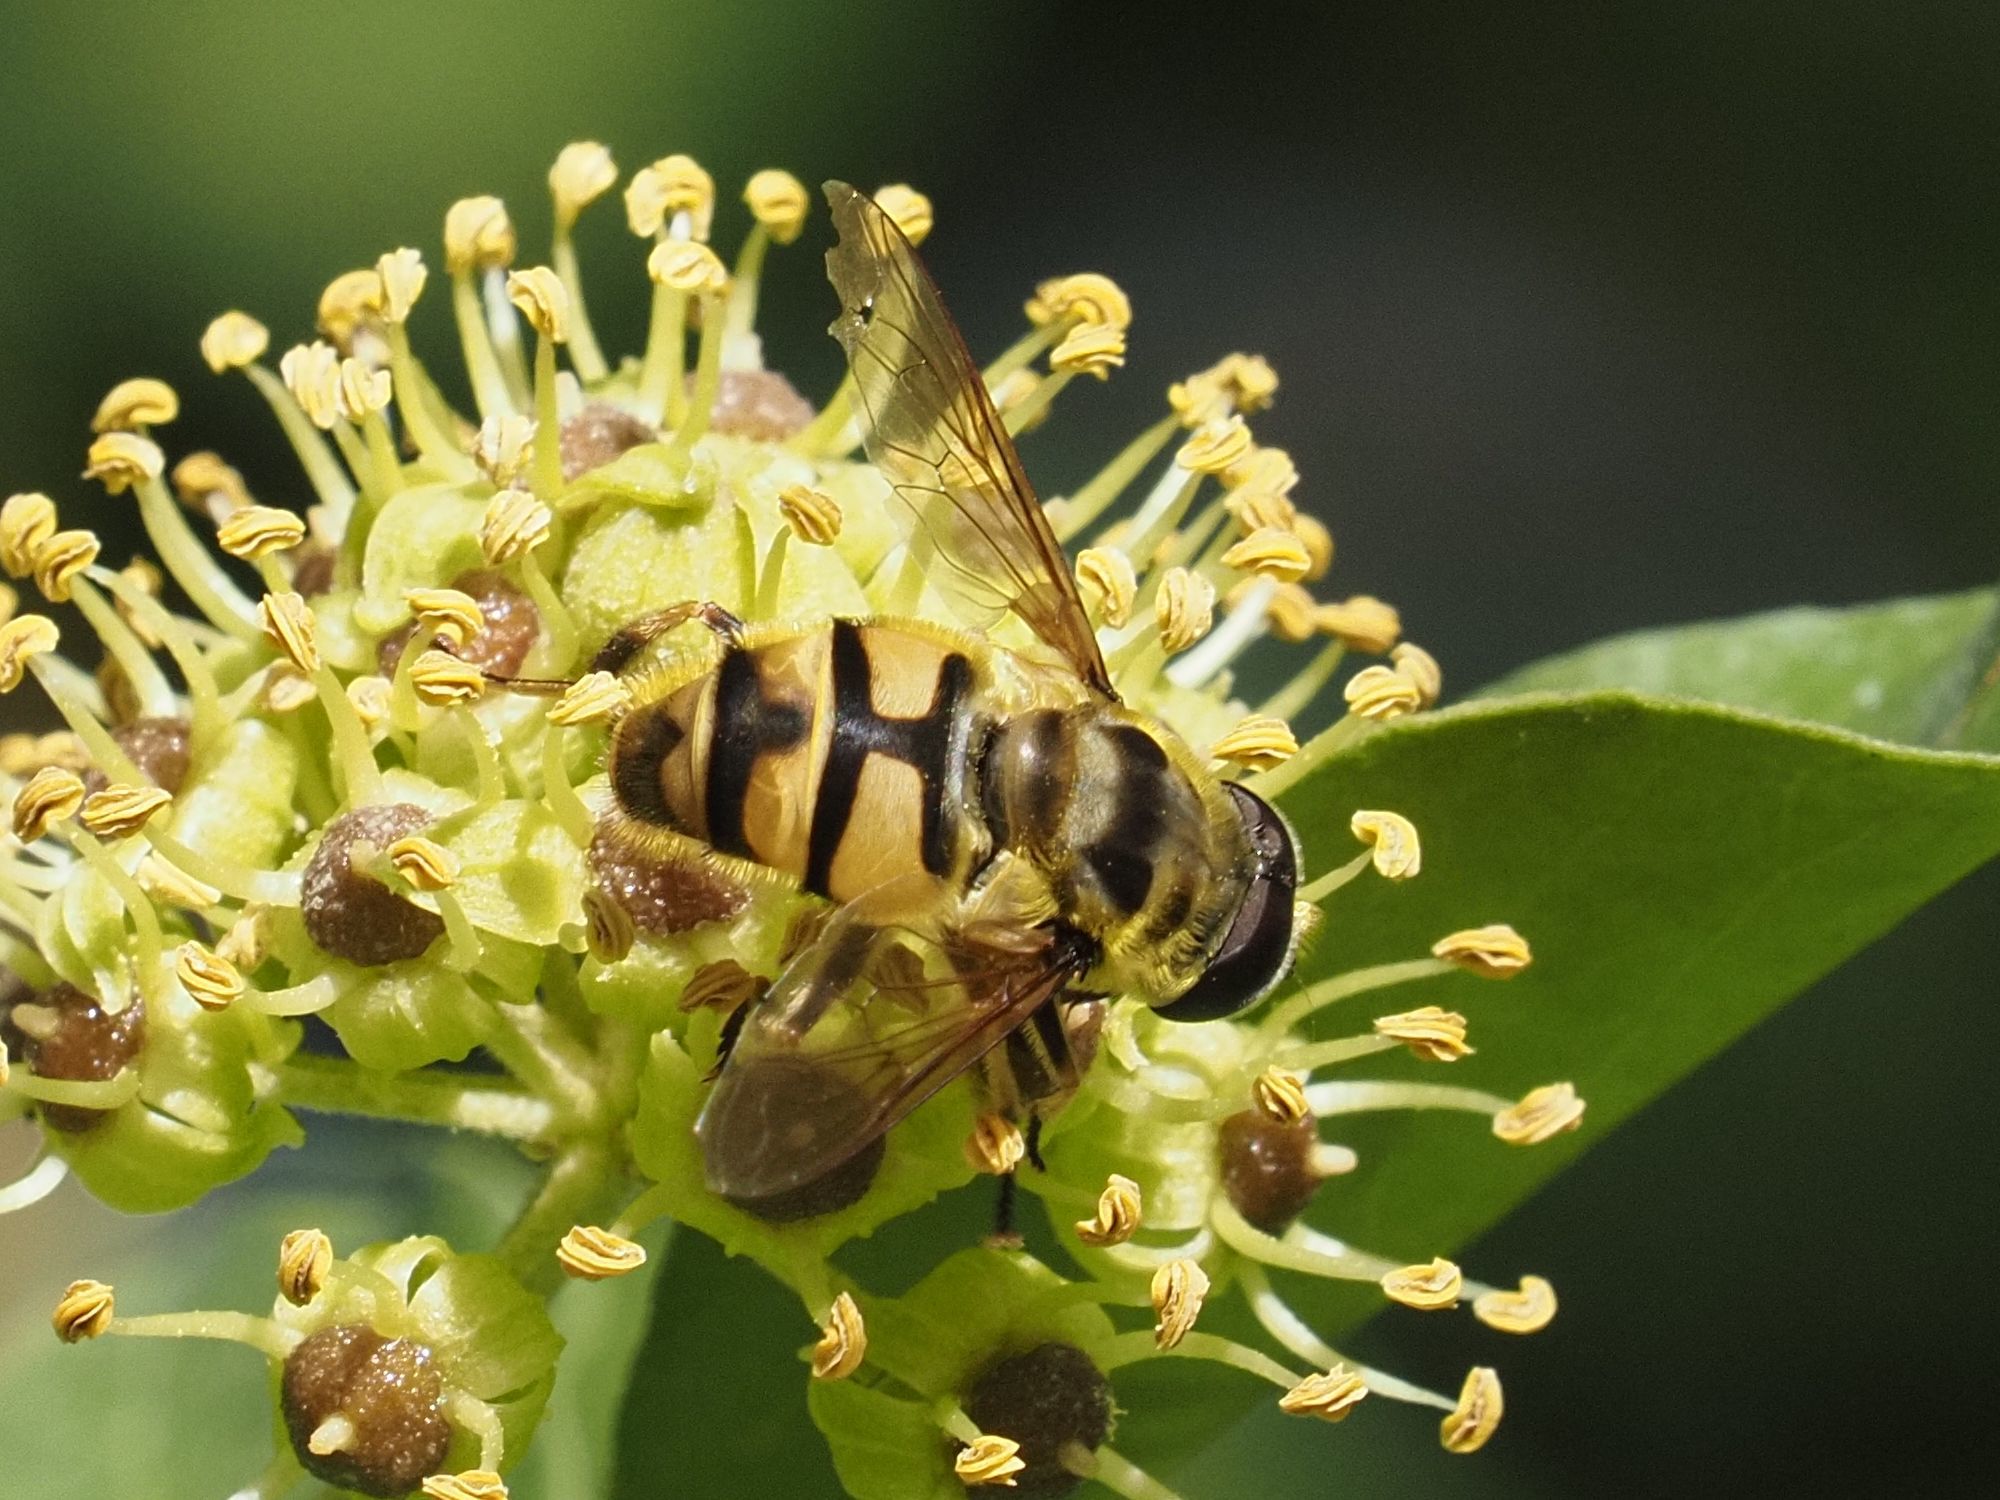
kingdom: Animalia
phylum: Arthropoda
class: Insecta
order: Diptera
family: Syrphidae
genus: Myathropa
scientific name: Myathropa florea
